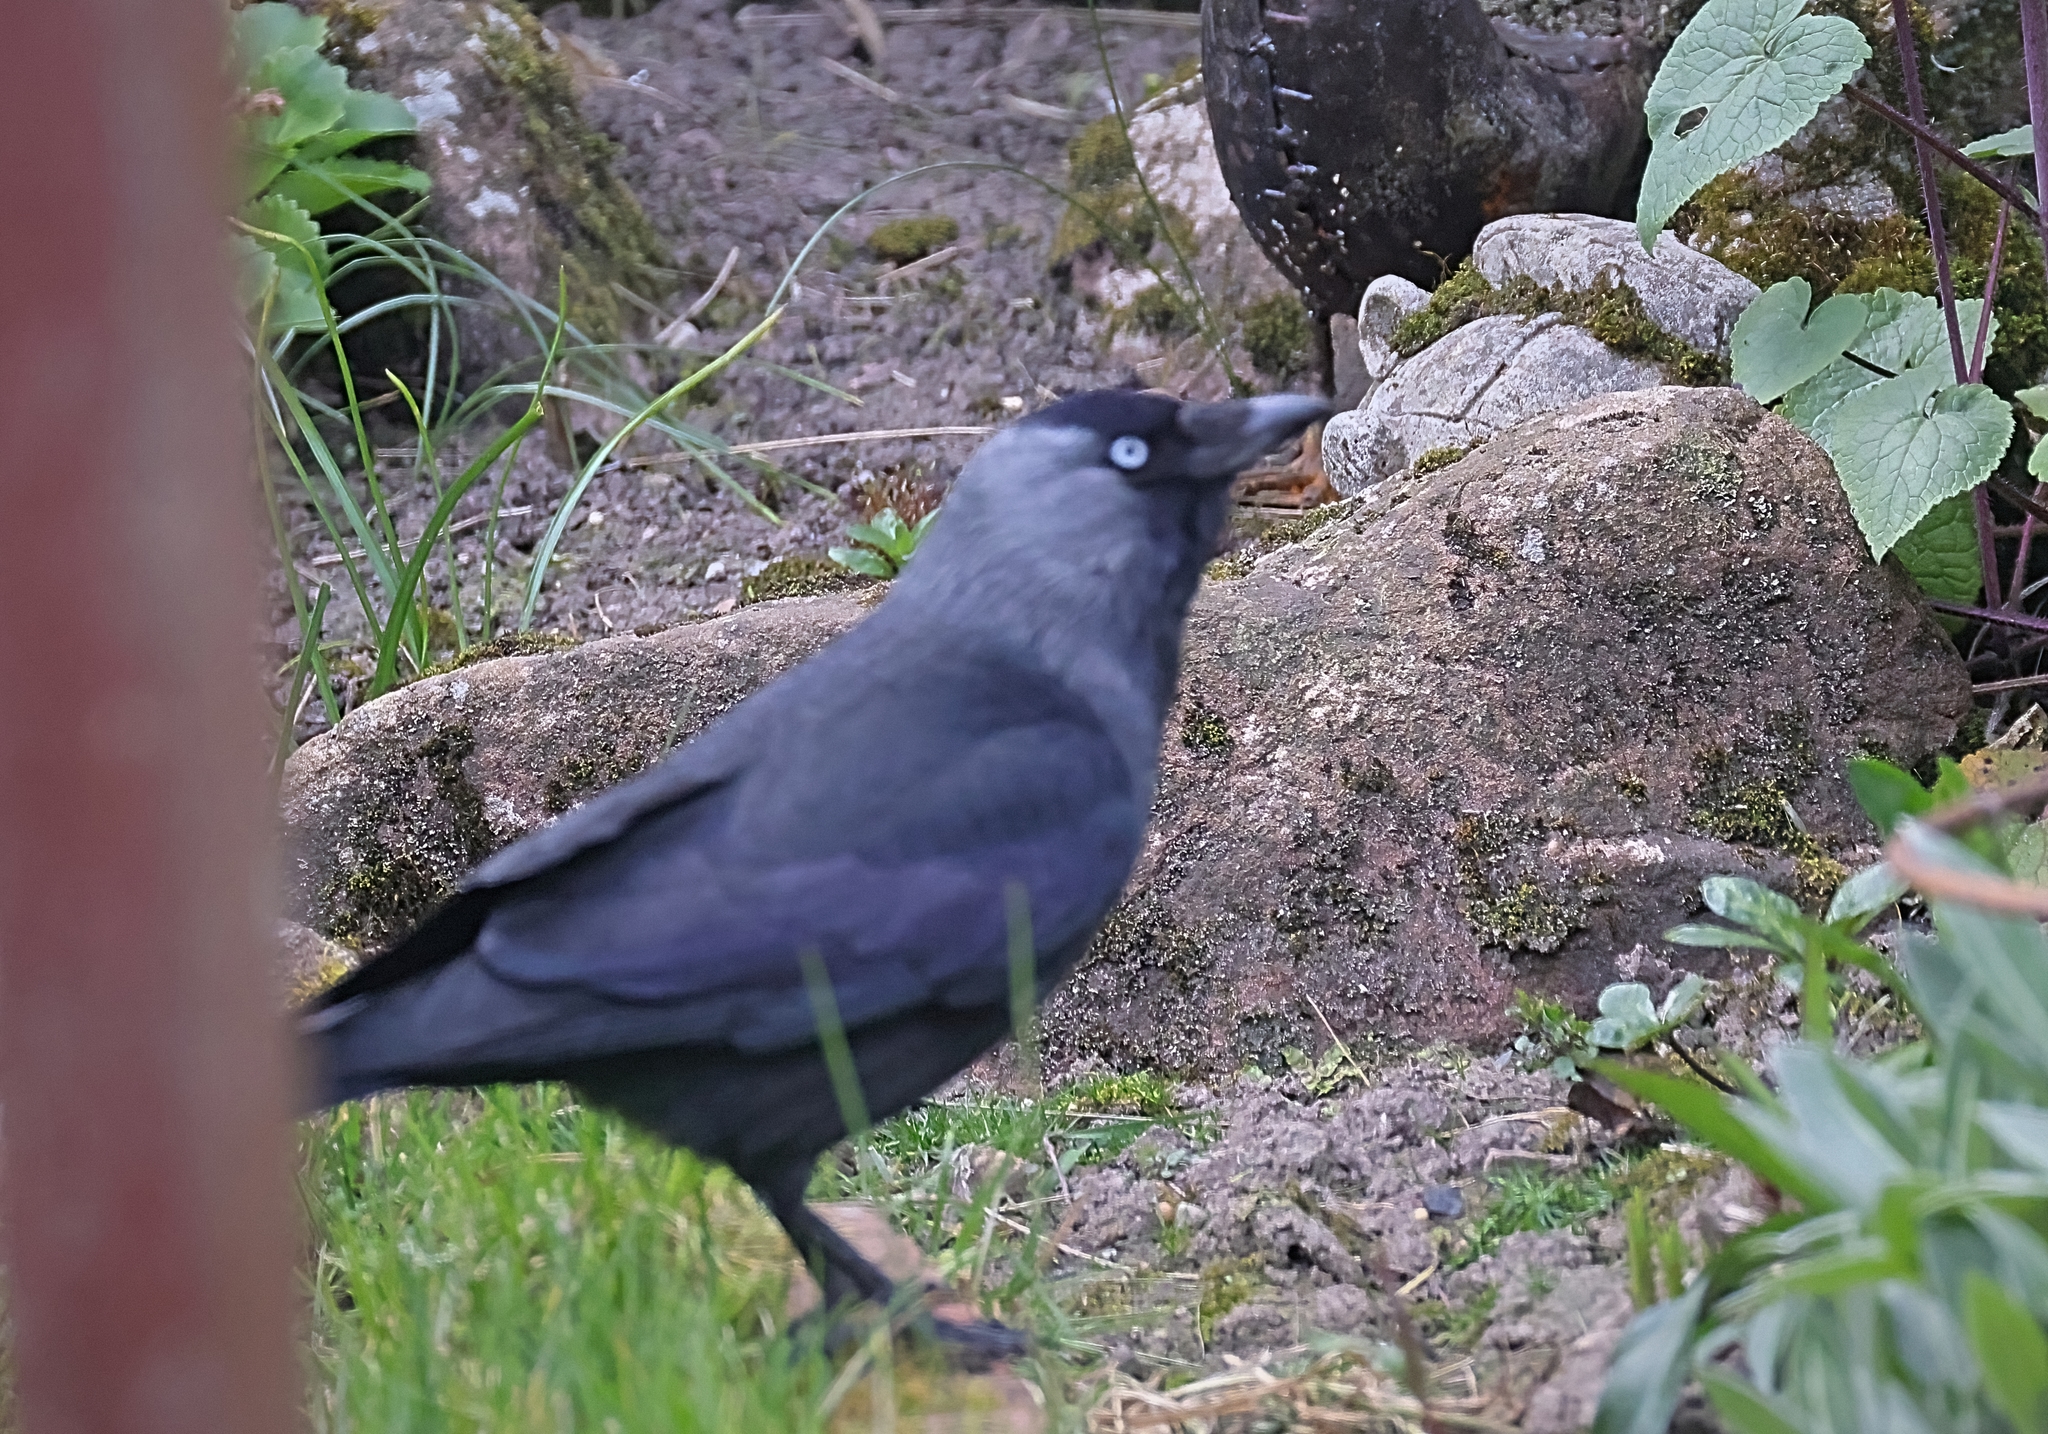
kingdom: Animalia
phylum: Chordata
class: Aves
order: Passeriformes
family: Corvidae
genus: Coloeus
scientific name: Coloeus monedula
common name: Western jackdaw
